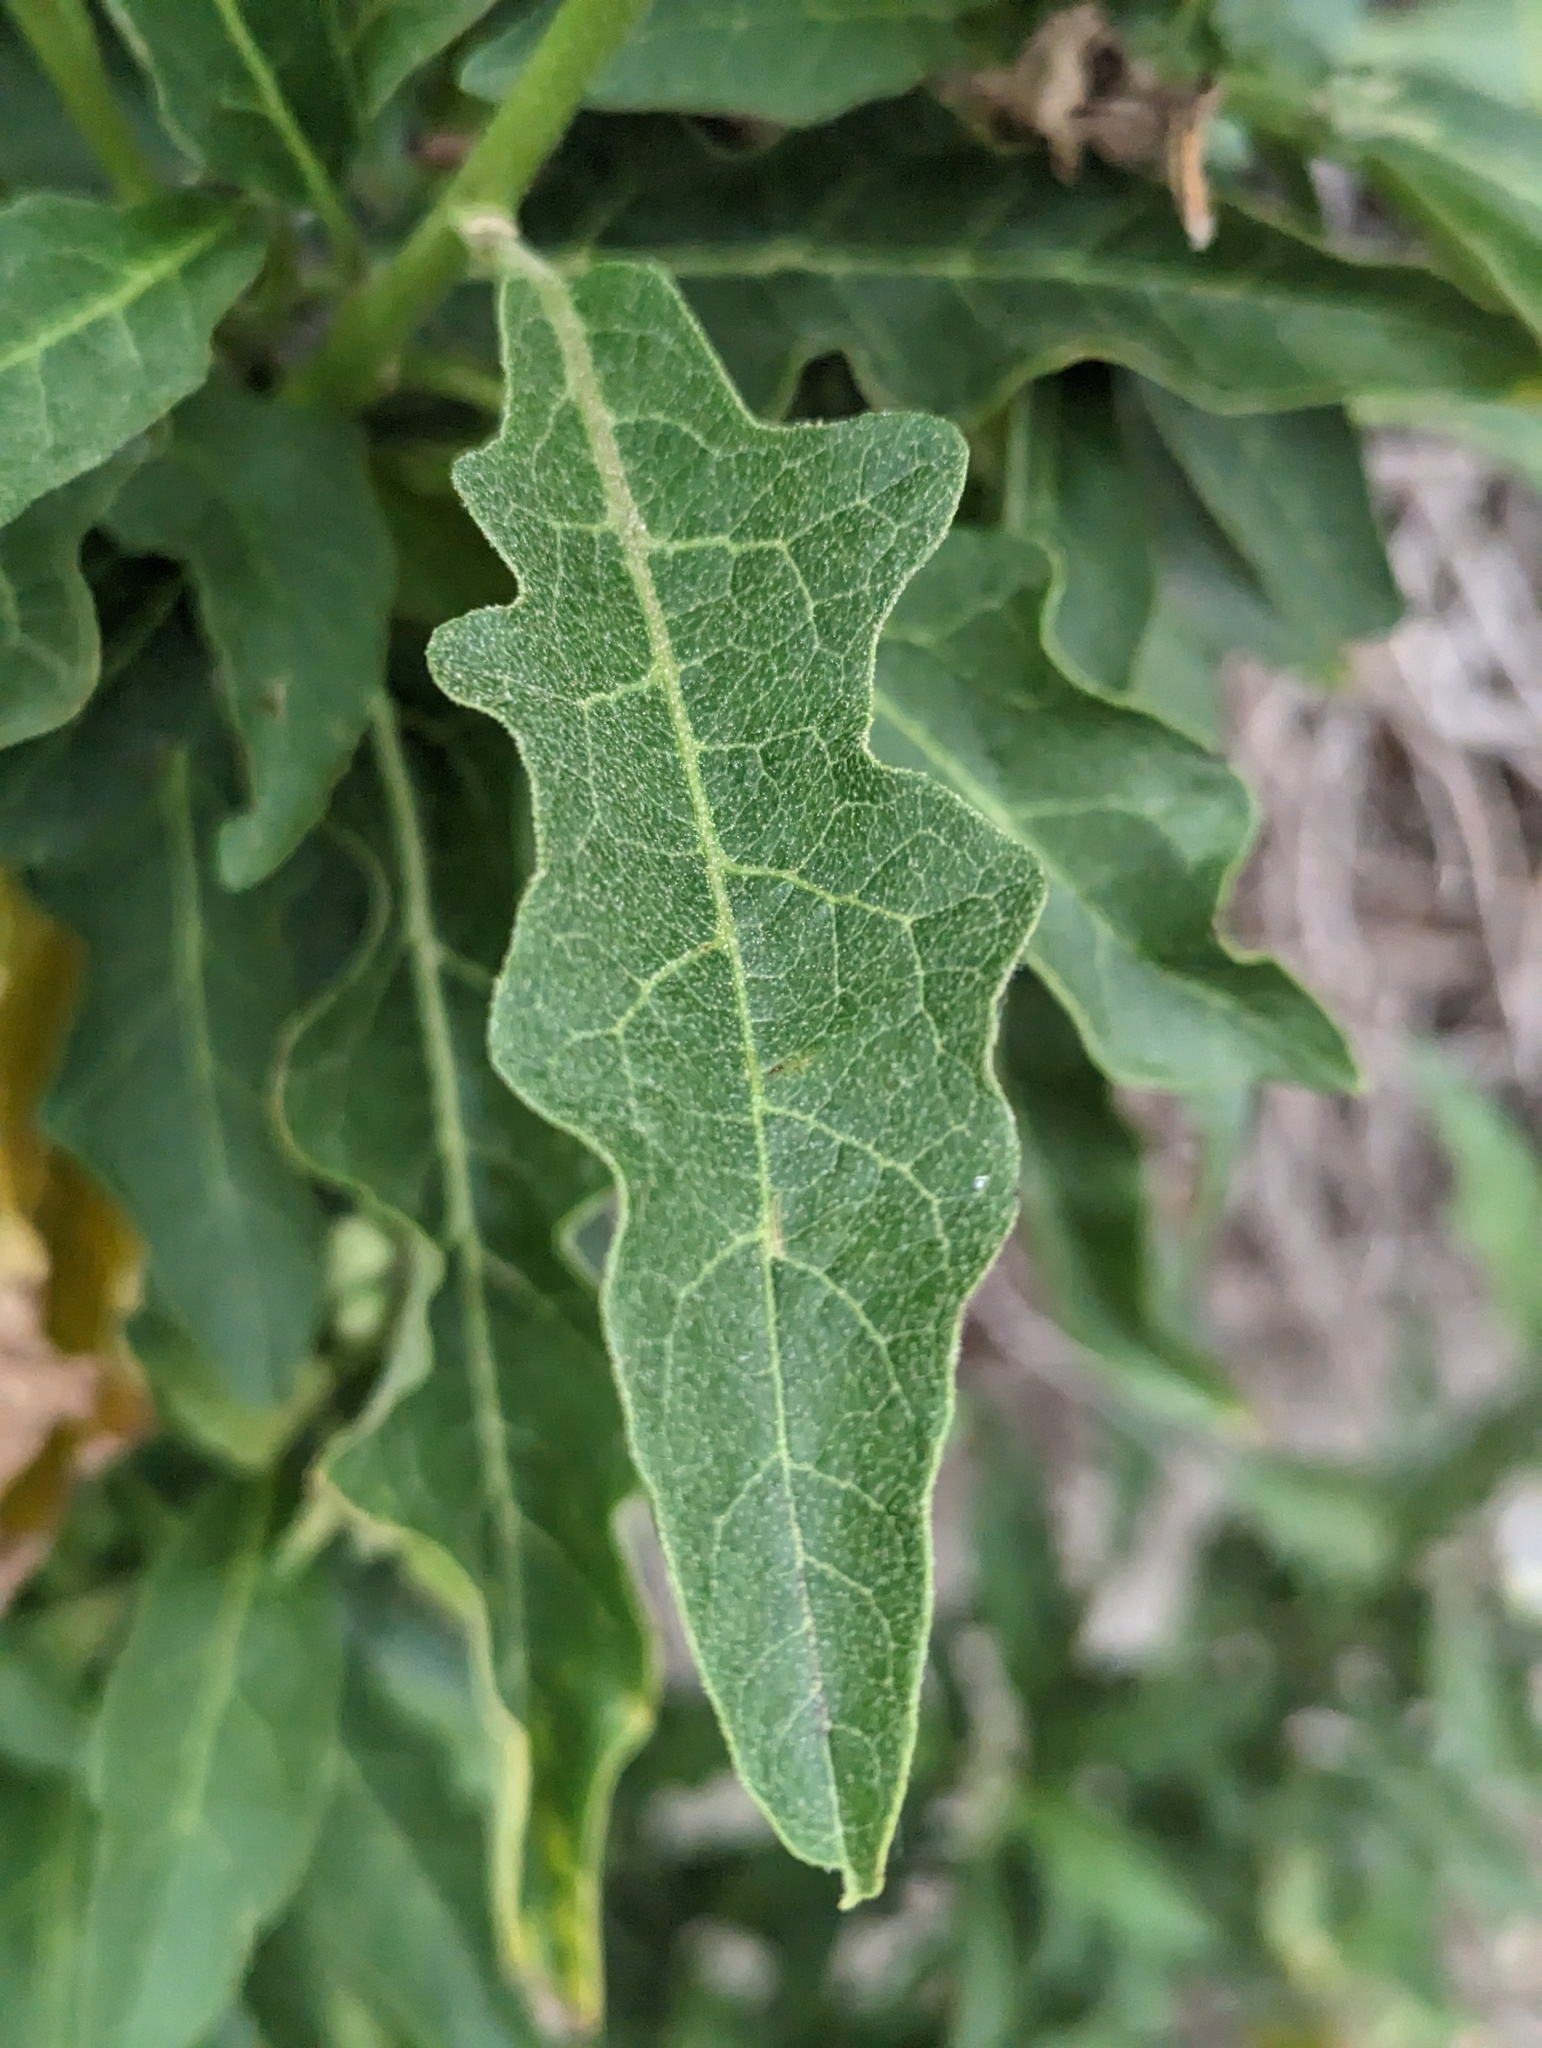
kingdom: Plantae
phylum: Tracheophyta
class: Magnoliopsida
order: Solanales
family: Solanaceae
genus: Solanum
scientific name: Solanum bonariense
